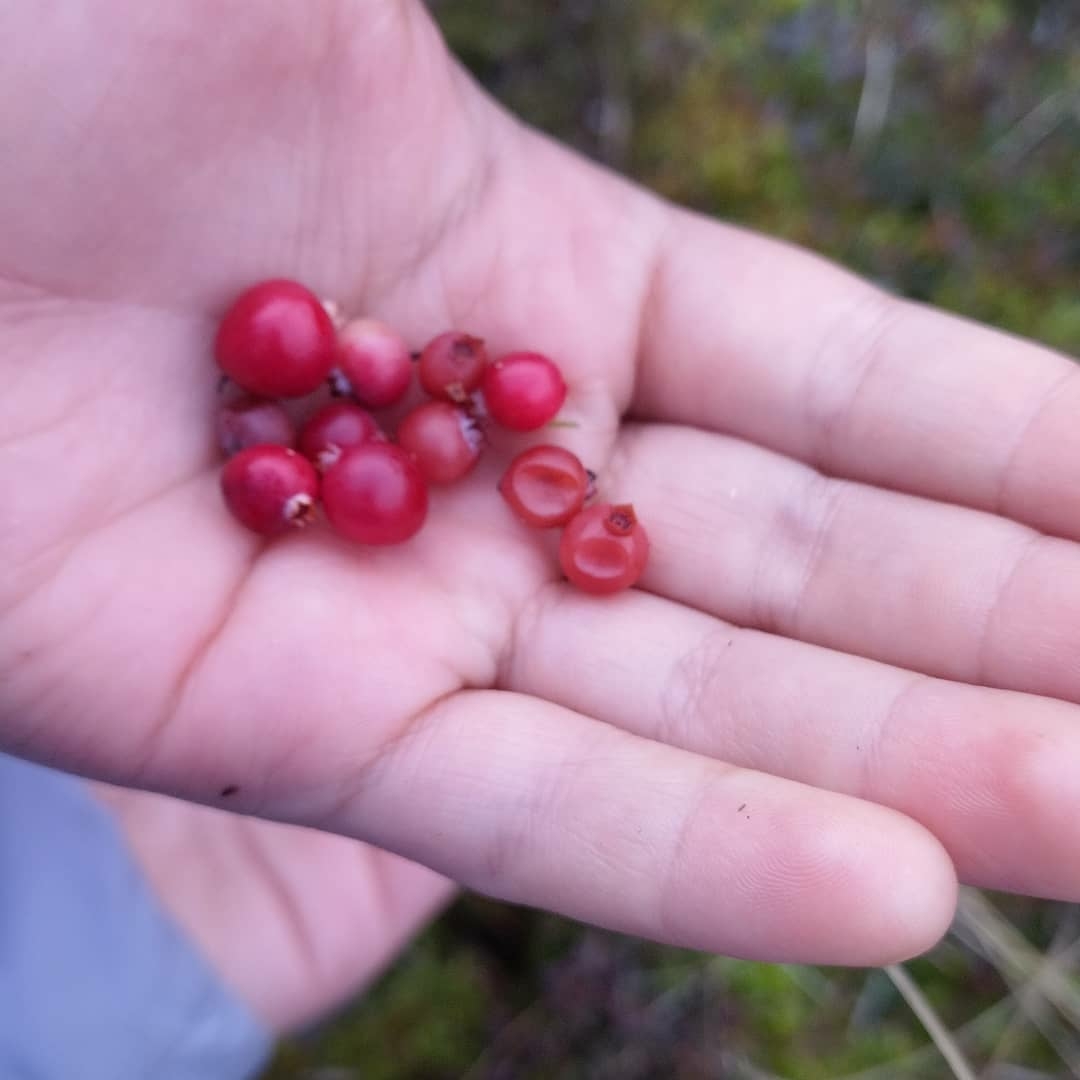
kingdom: Plantae
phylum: Tracheophyta
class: Magnoliopsida
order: Ericales
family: Ericaceae
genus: Vaccinium
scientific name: Vaccinium oxycoccos
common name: Cranberry
